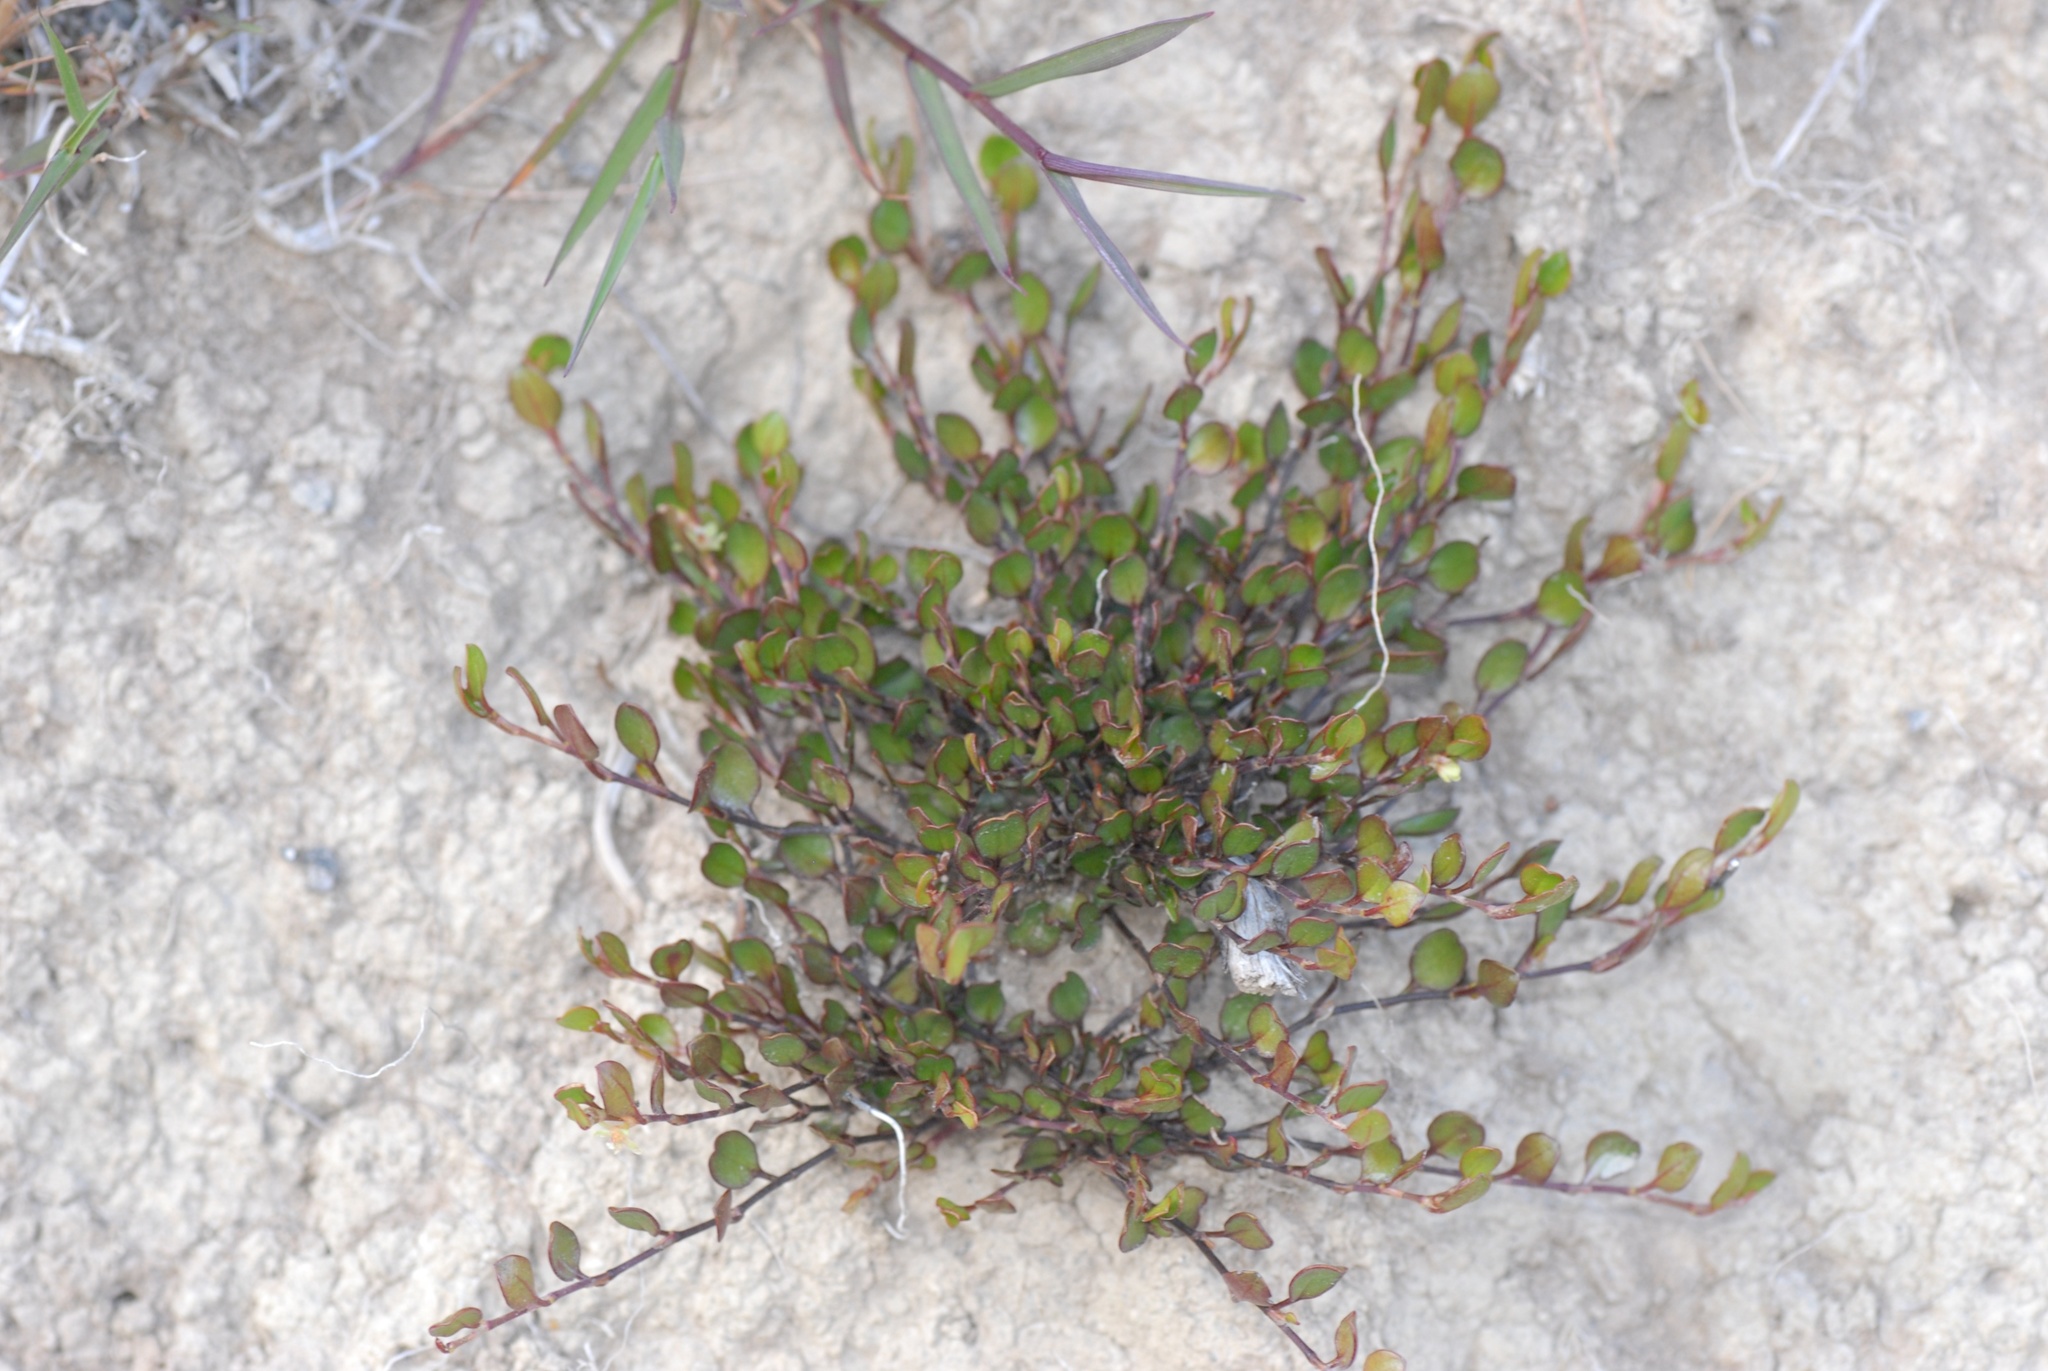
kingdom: Plantae
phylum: Tracheophyta
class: Magnoliopsida
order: Caryophyllales
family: Polygonaceae
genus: Muehlenbeckia
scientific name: Muehlenbeckia axillaris
